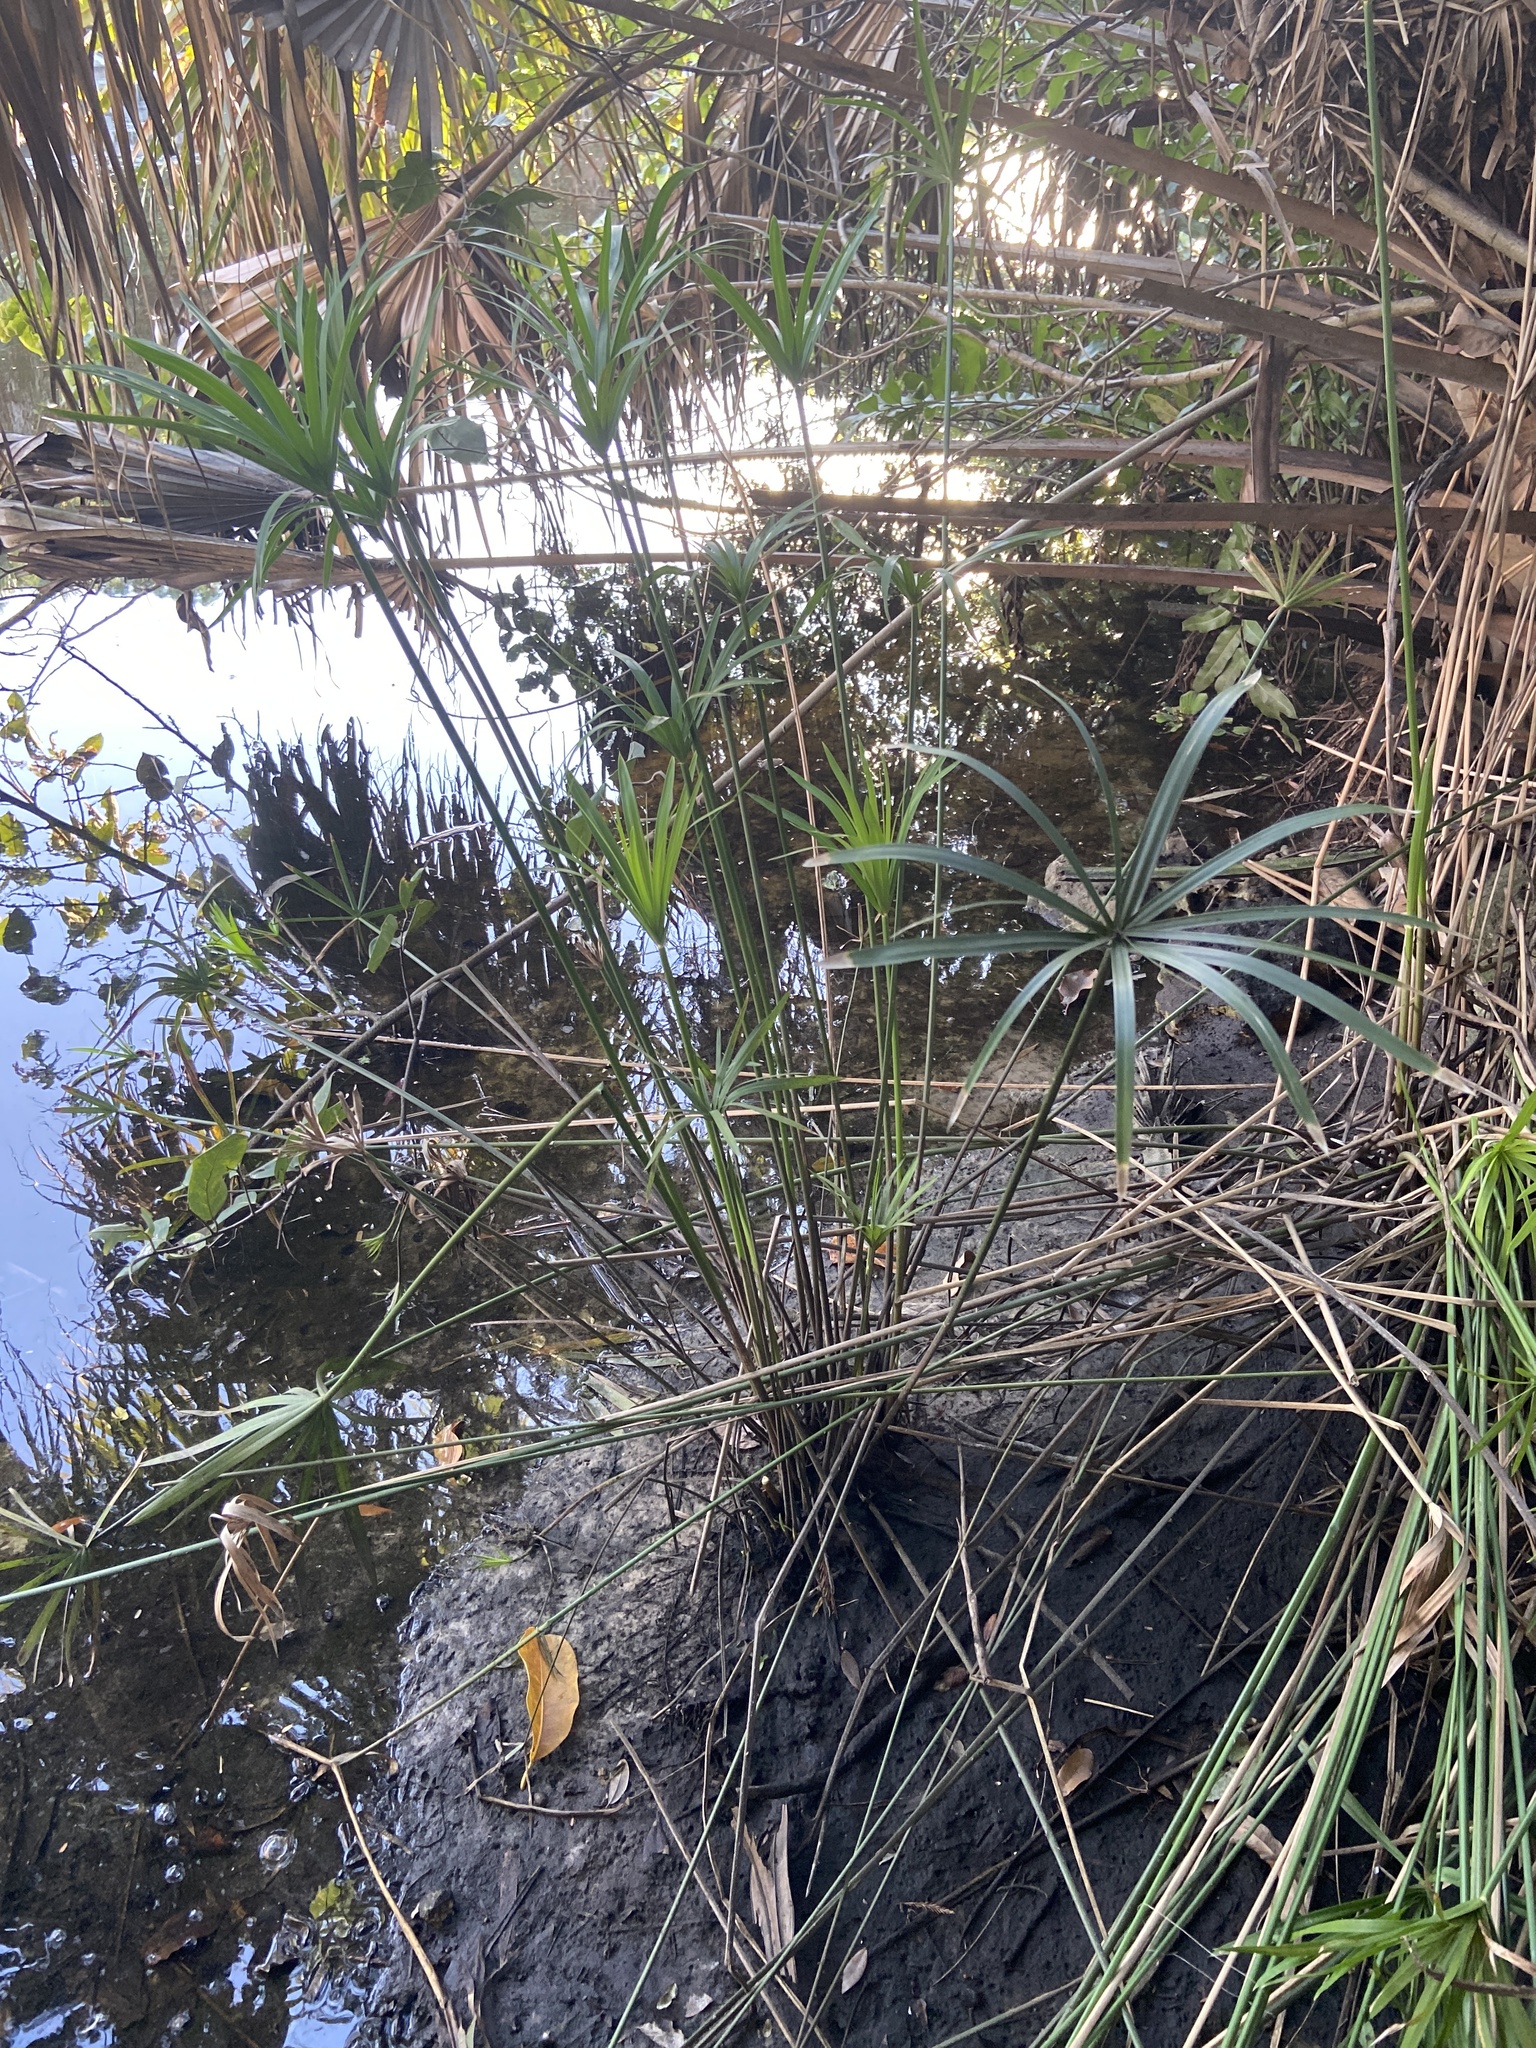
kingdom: Plantae
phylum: Tracheophyta
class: Liliopsida
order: Poales
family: Cyperaceae
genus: Cyperus
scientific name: Cyperus alternifolius
